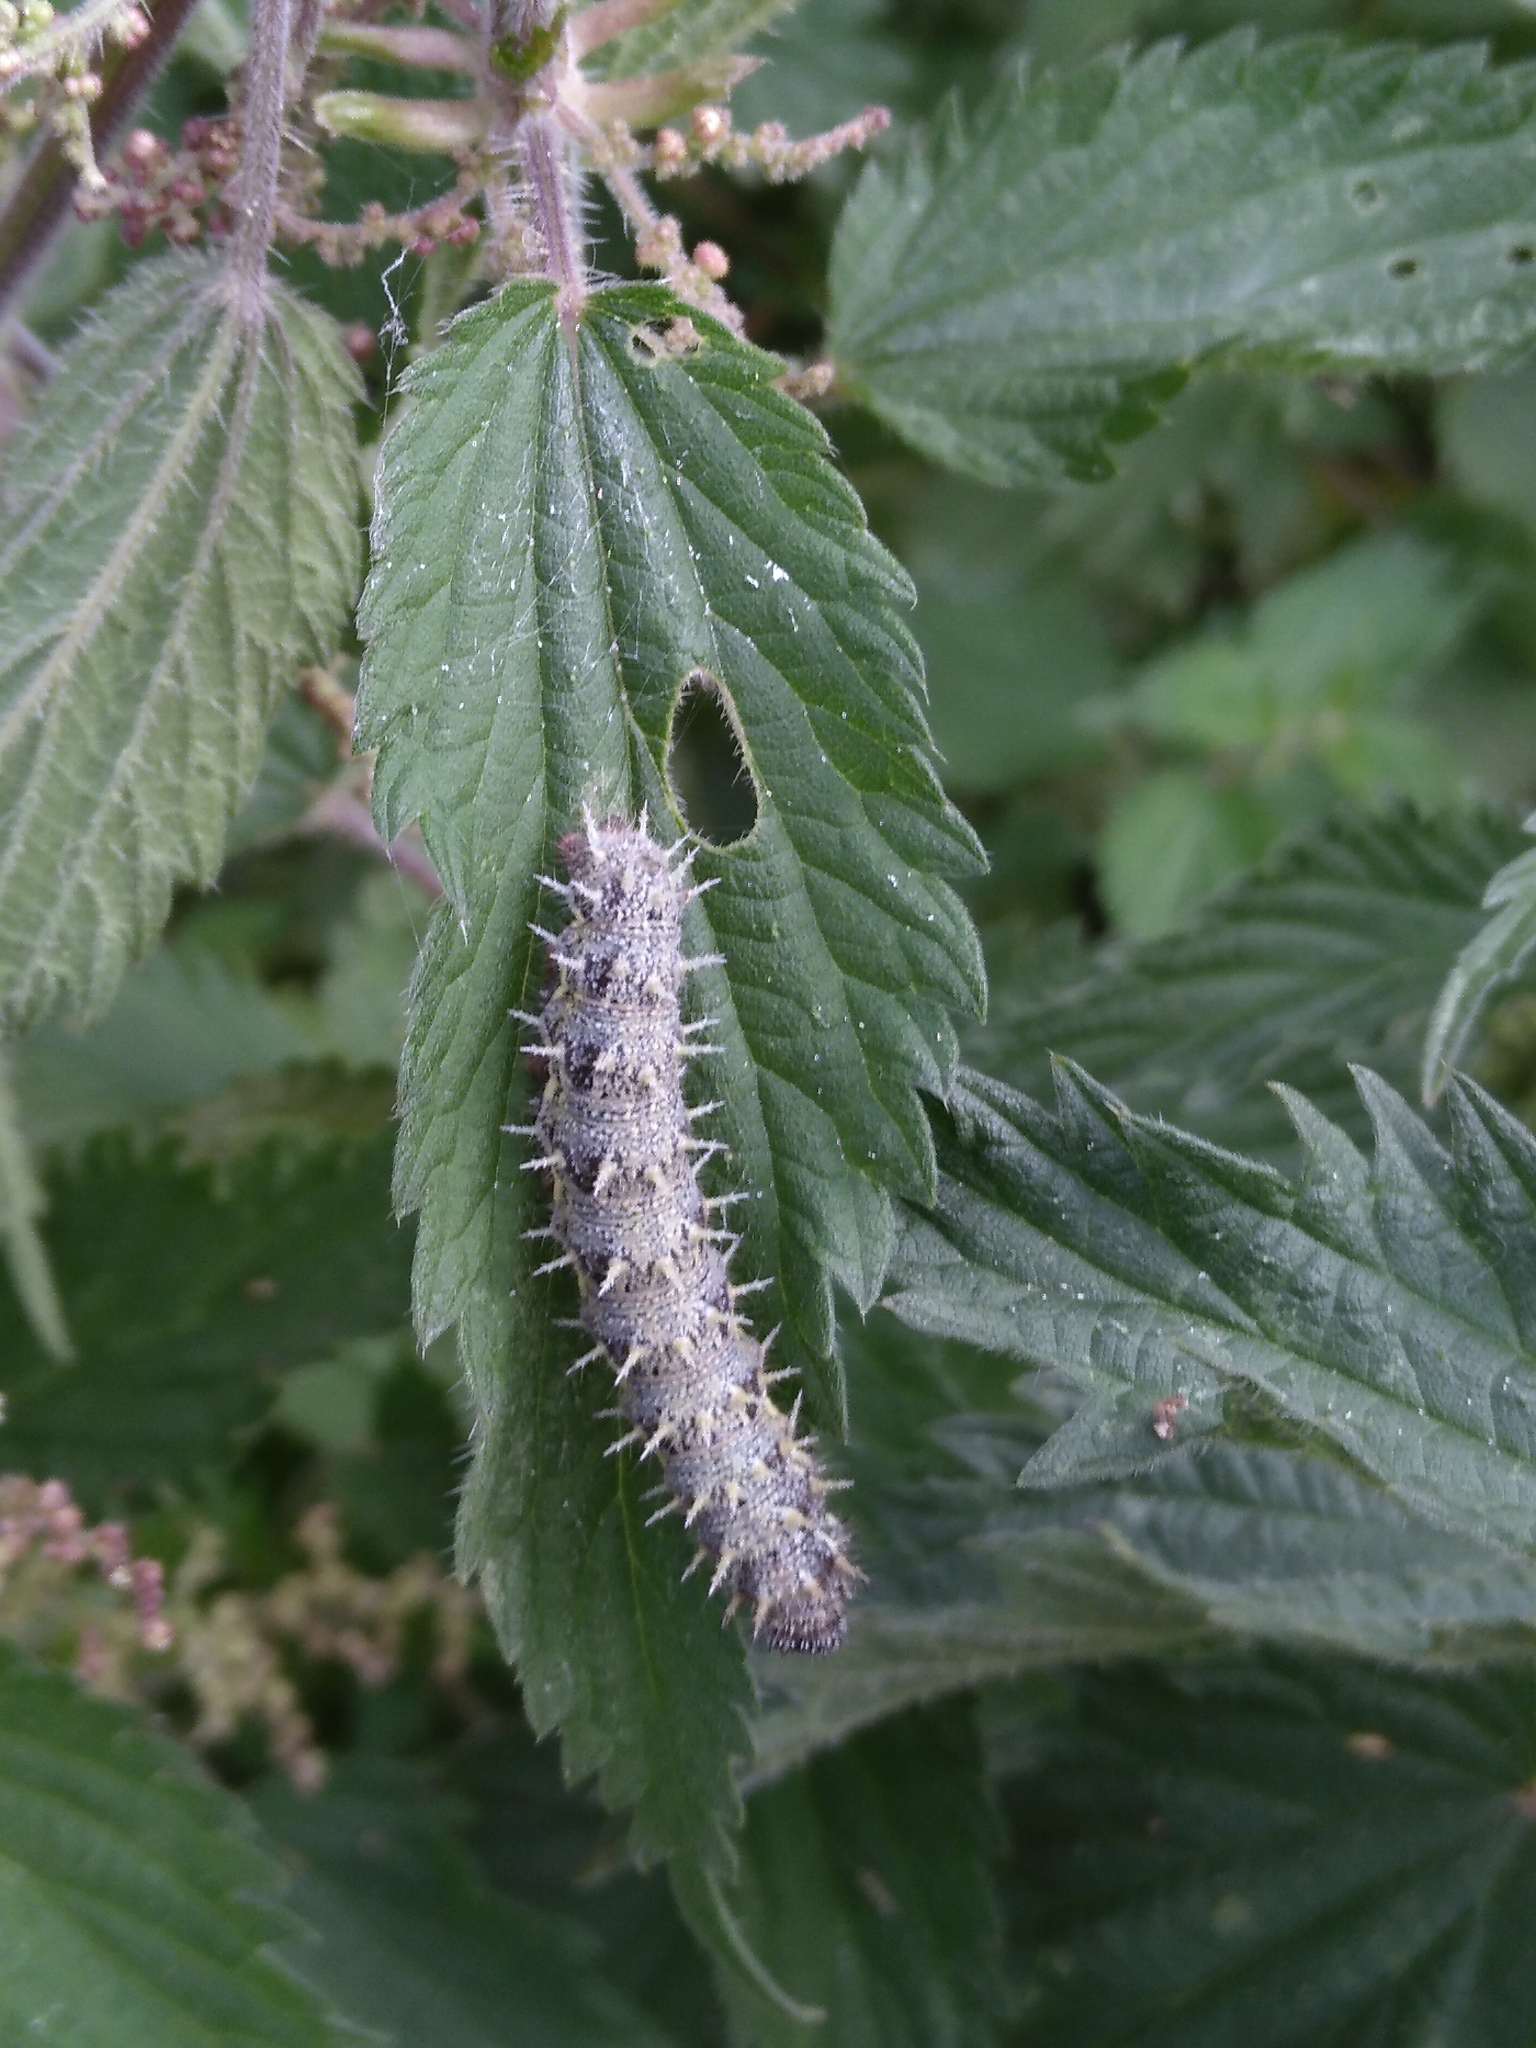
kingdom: Animalia
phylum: Arthropoda
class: Insecta
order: Lepidoptera
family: Nymphalidae
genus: Vanessa
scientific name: Vanessa atalanta
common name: Red admiral
